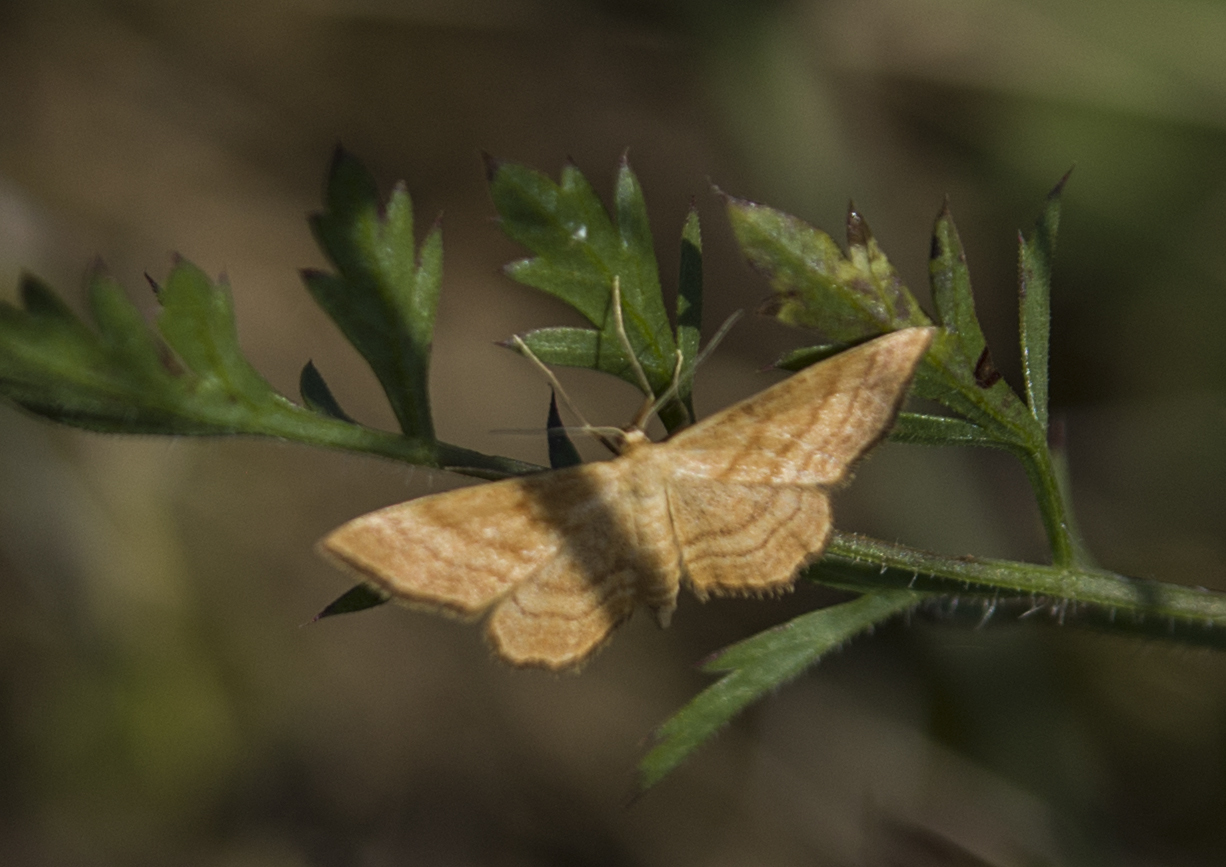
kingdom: Animalia
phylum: Arthropoda
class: Insecta
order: Lepidoptera
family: Geometridae
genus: Idaea
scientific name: Idaea ochrata
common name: Bright wave
